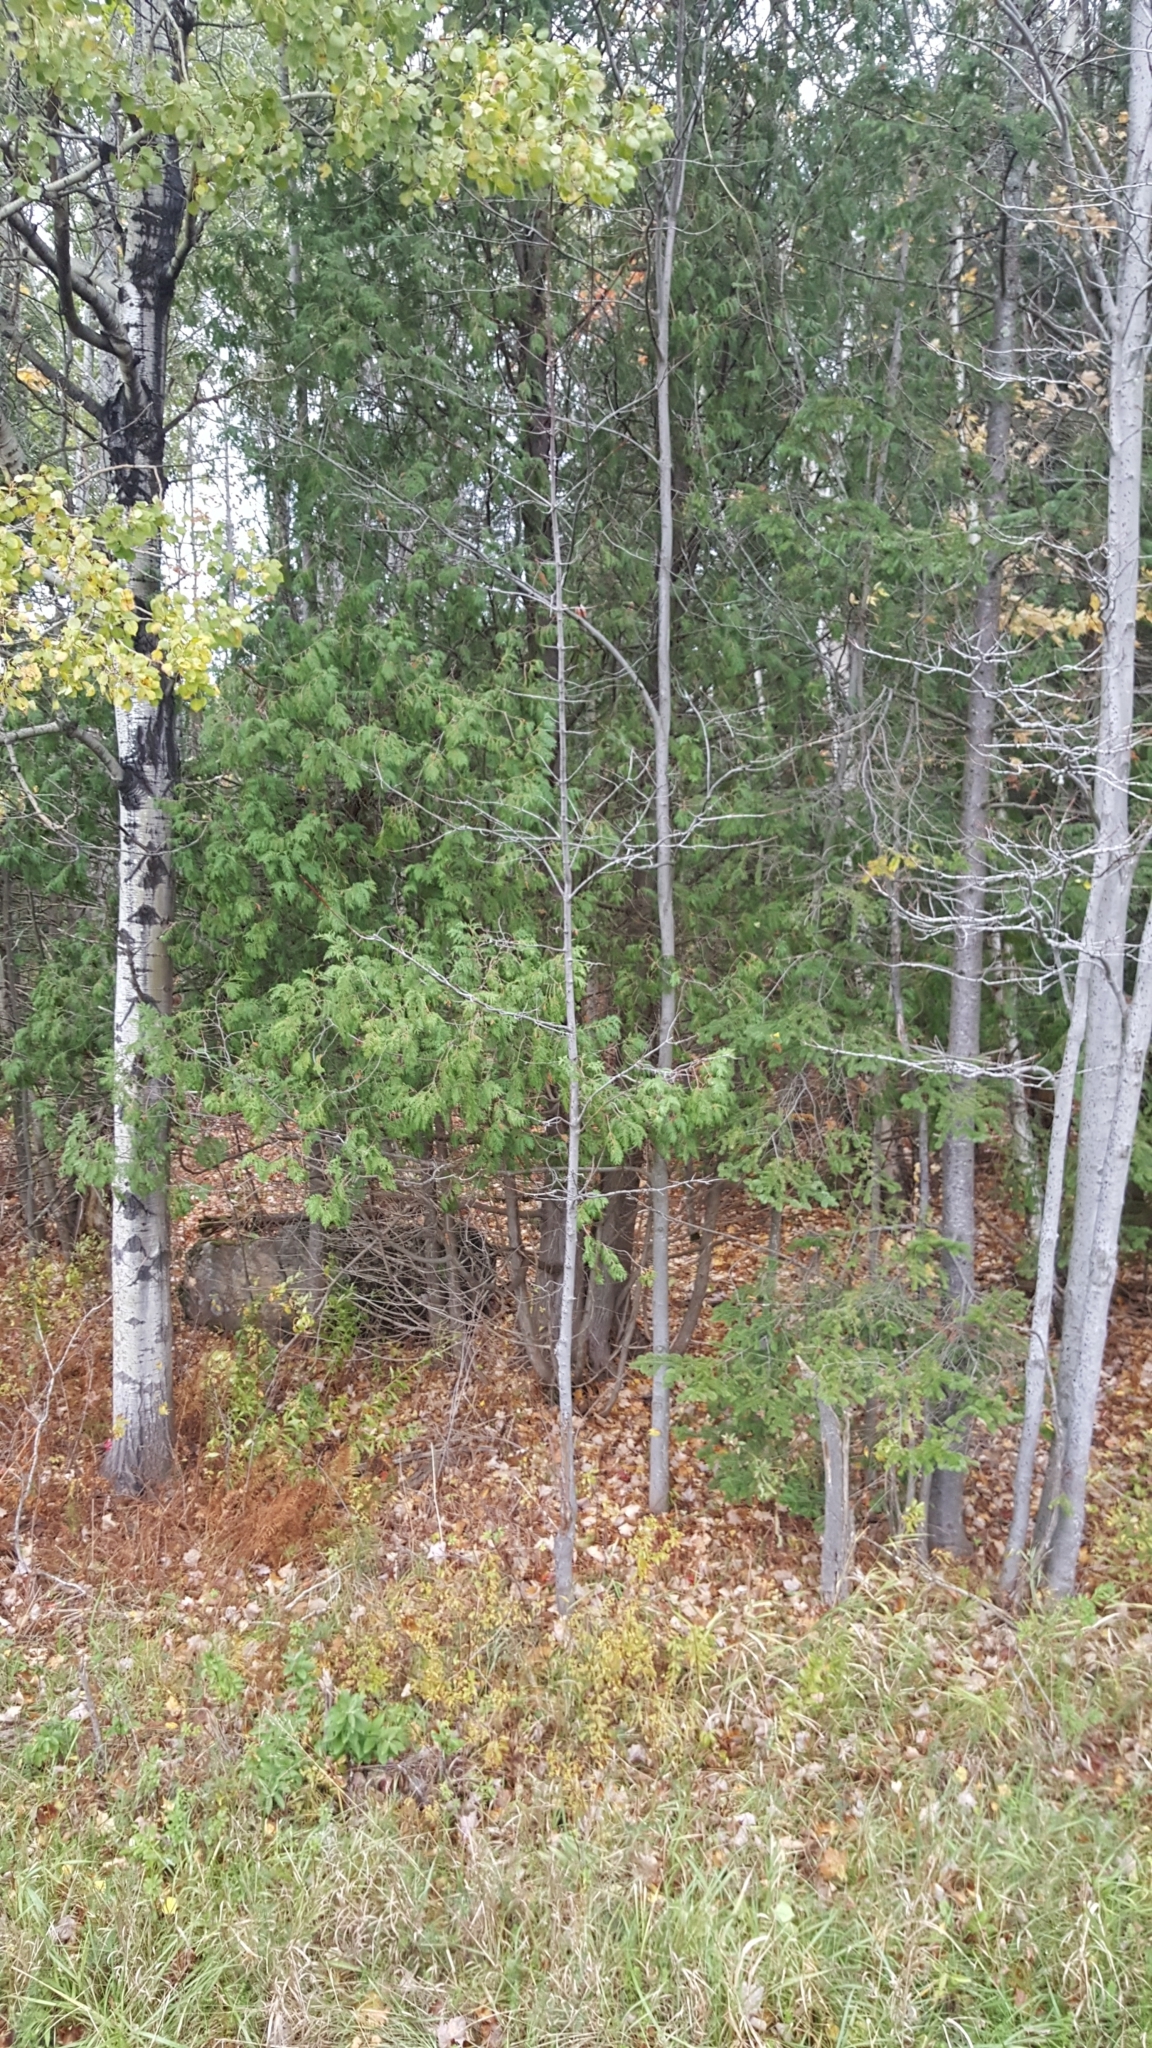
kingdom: Plantae
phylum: Tracheophyta
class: Pinopsida
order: Pinales
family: Cupressaceae
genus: Thuja
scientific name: Thuja occidentalis
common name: Northern white-cedar
